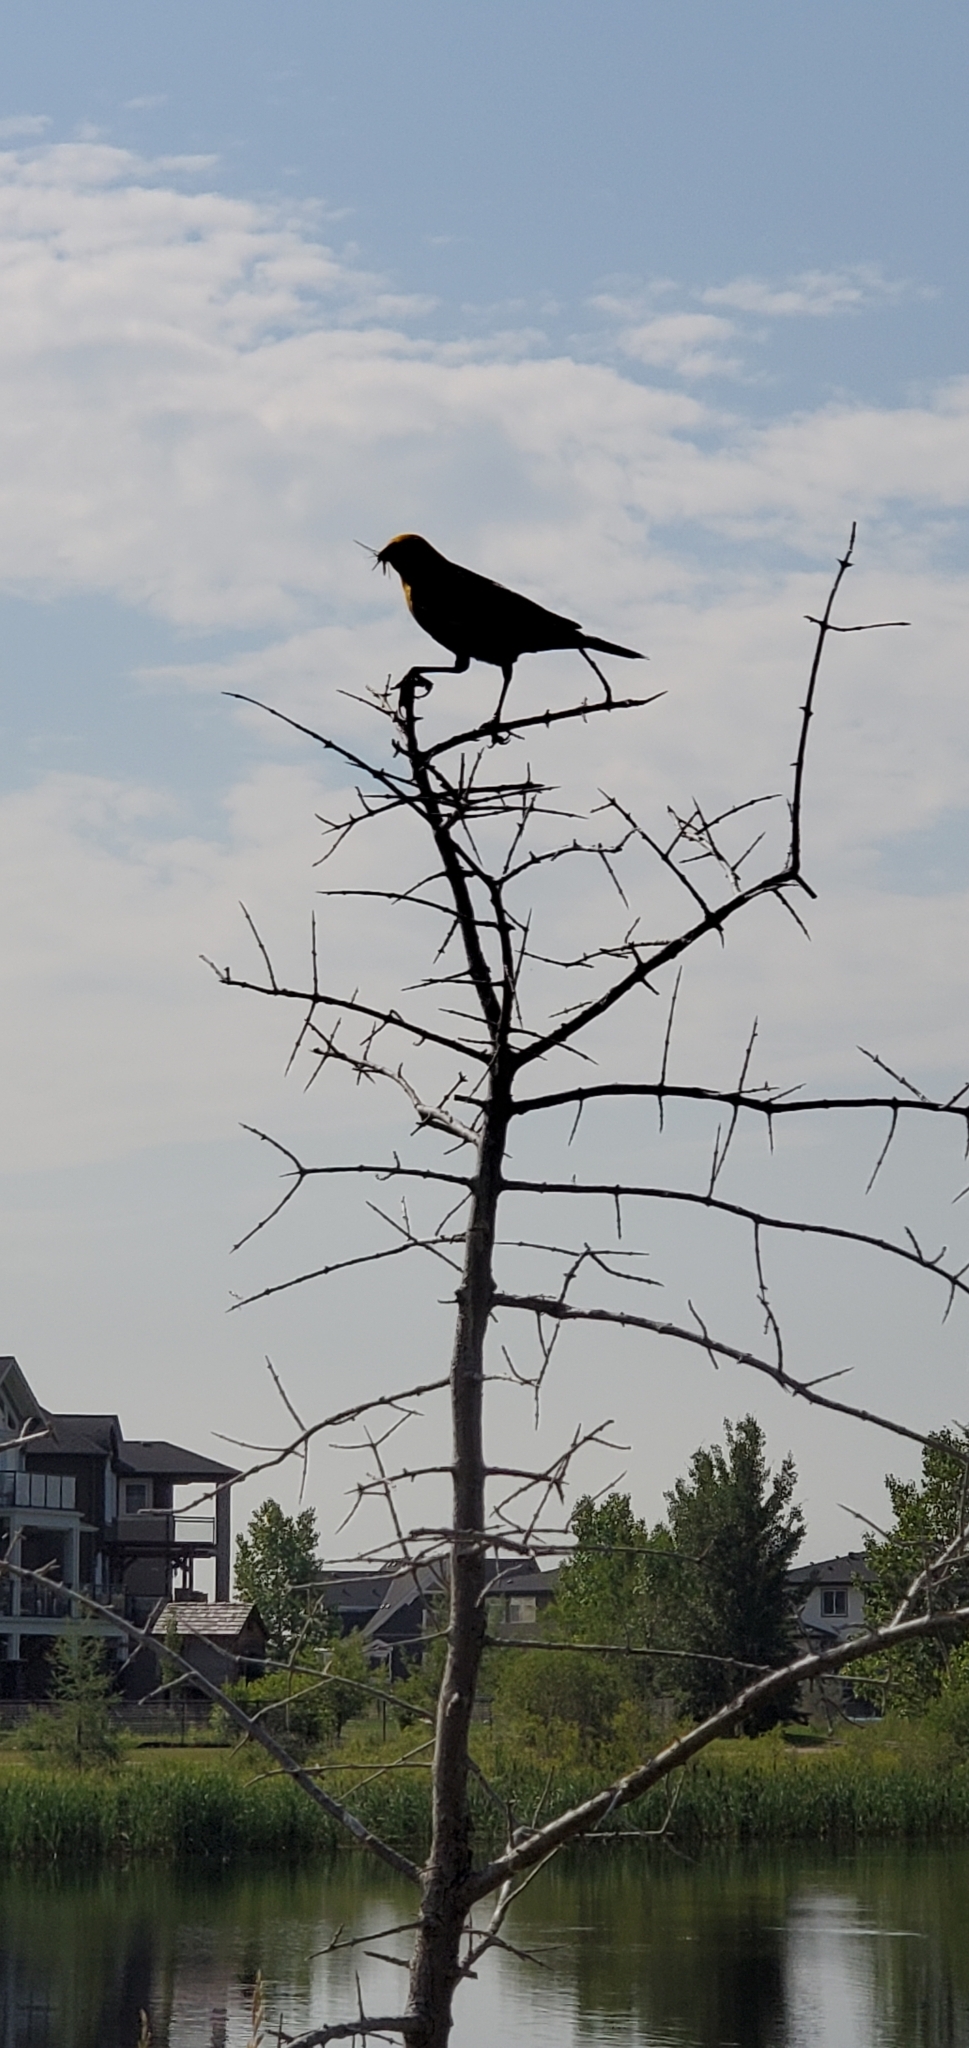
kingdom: Animalia
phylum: Chordata
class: Aves
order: Passeriformes
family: Icteridae
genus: Xanthocephalus
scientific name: Xanthocephalus xanthocephalus
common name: Yellow-headed blackbird
